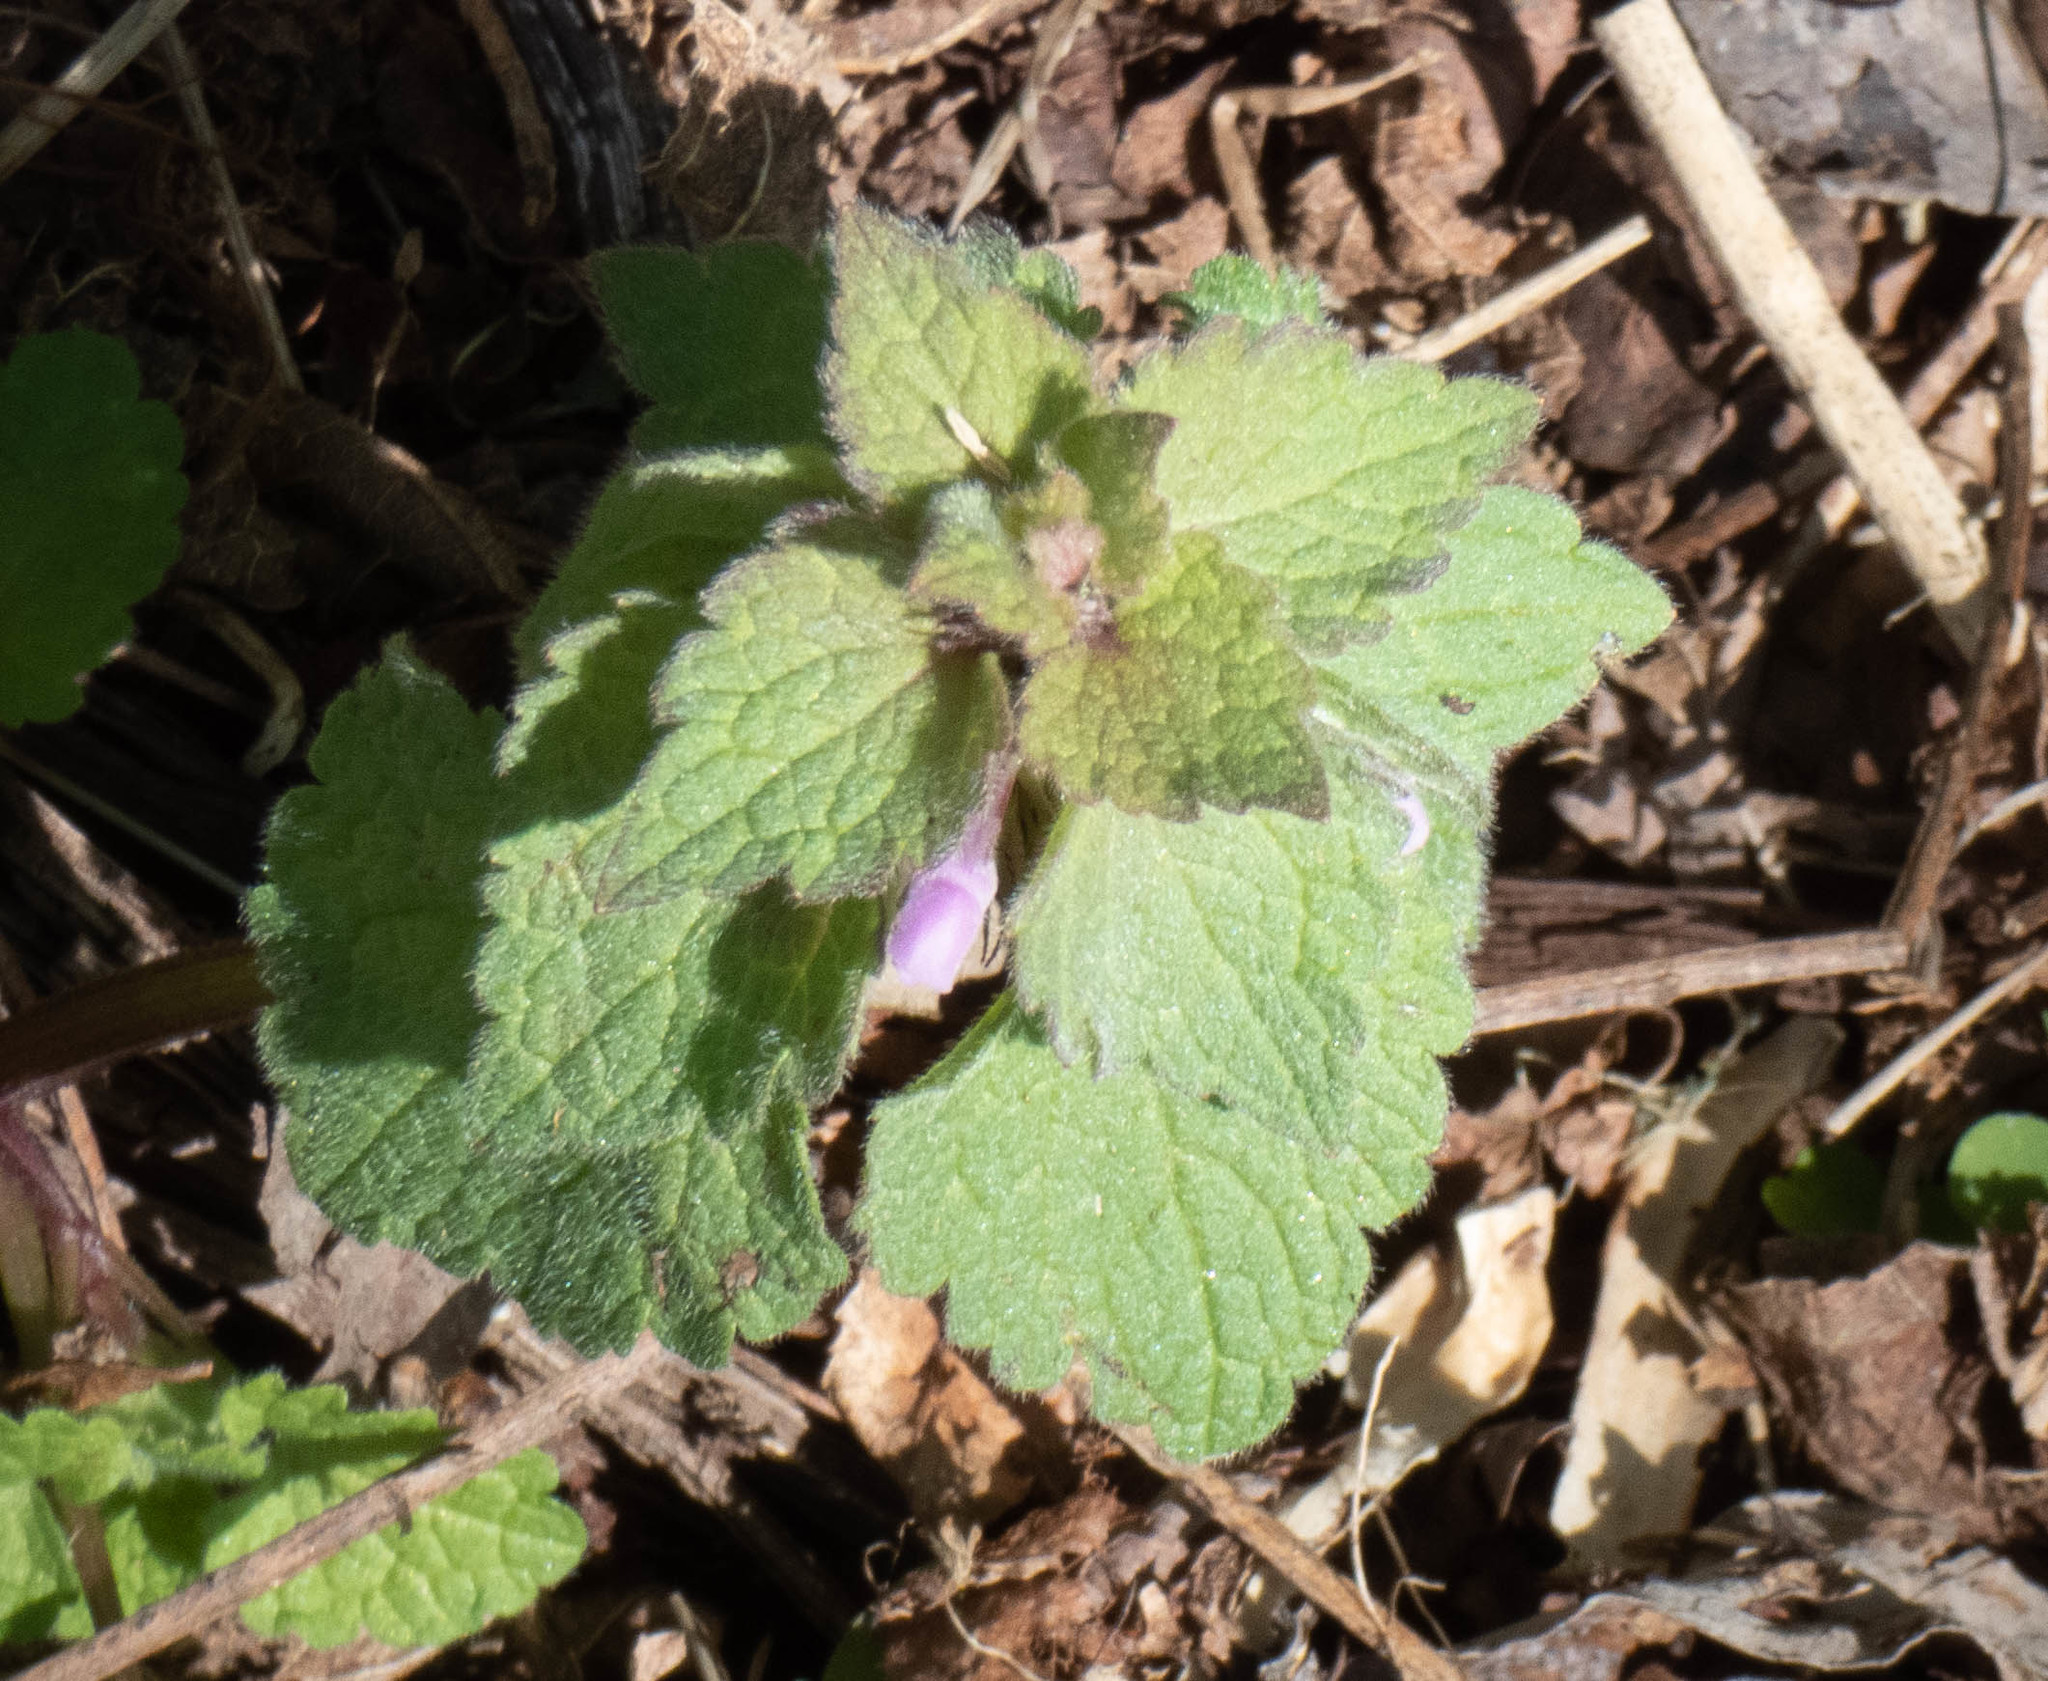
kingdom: Plantae
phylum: Tracheophyta
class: Magnoliopsida
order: Lamiales
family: Lamiaceae
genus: Lamium
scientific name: Lamium purpureum
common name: Red dead-nettle
